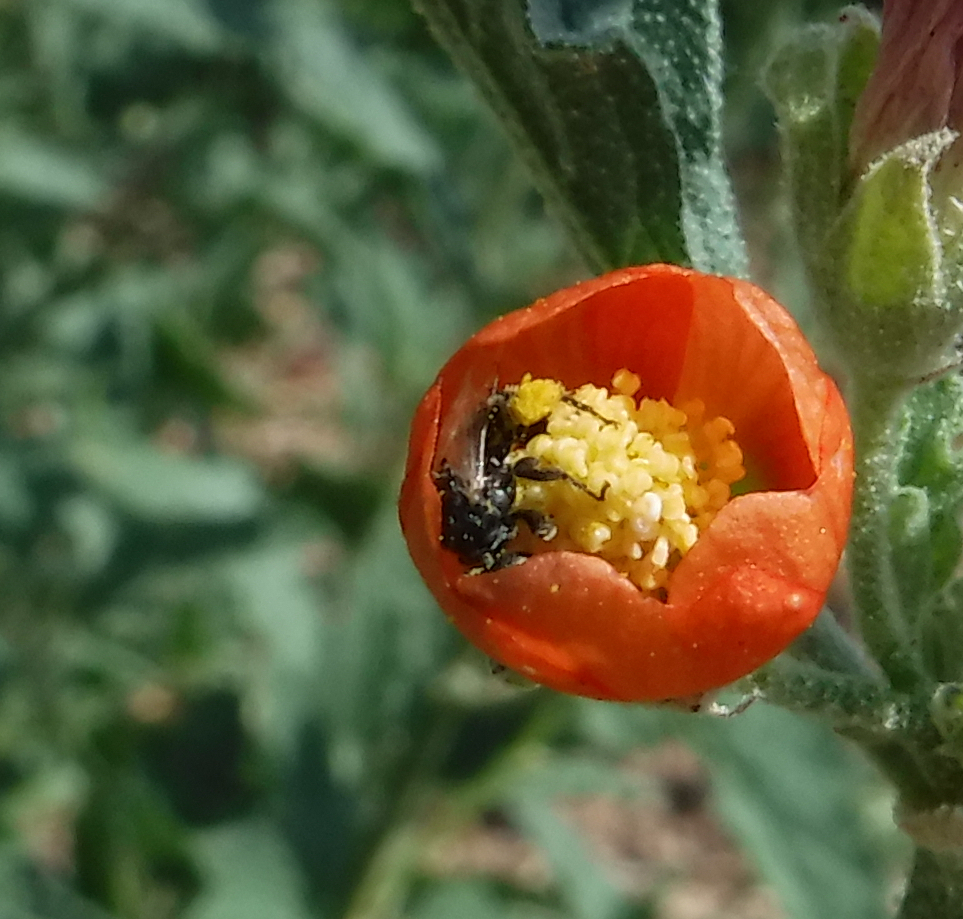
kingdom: Animalia
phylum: Arthropoda
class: Insecta
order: Hymenoptera
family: Andrenidae
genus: Macrotera
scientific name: Macrotera latior
